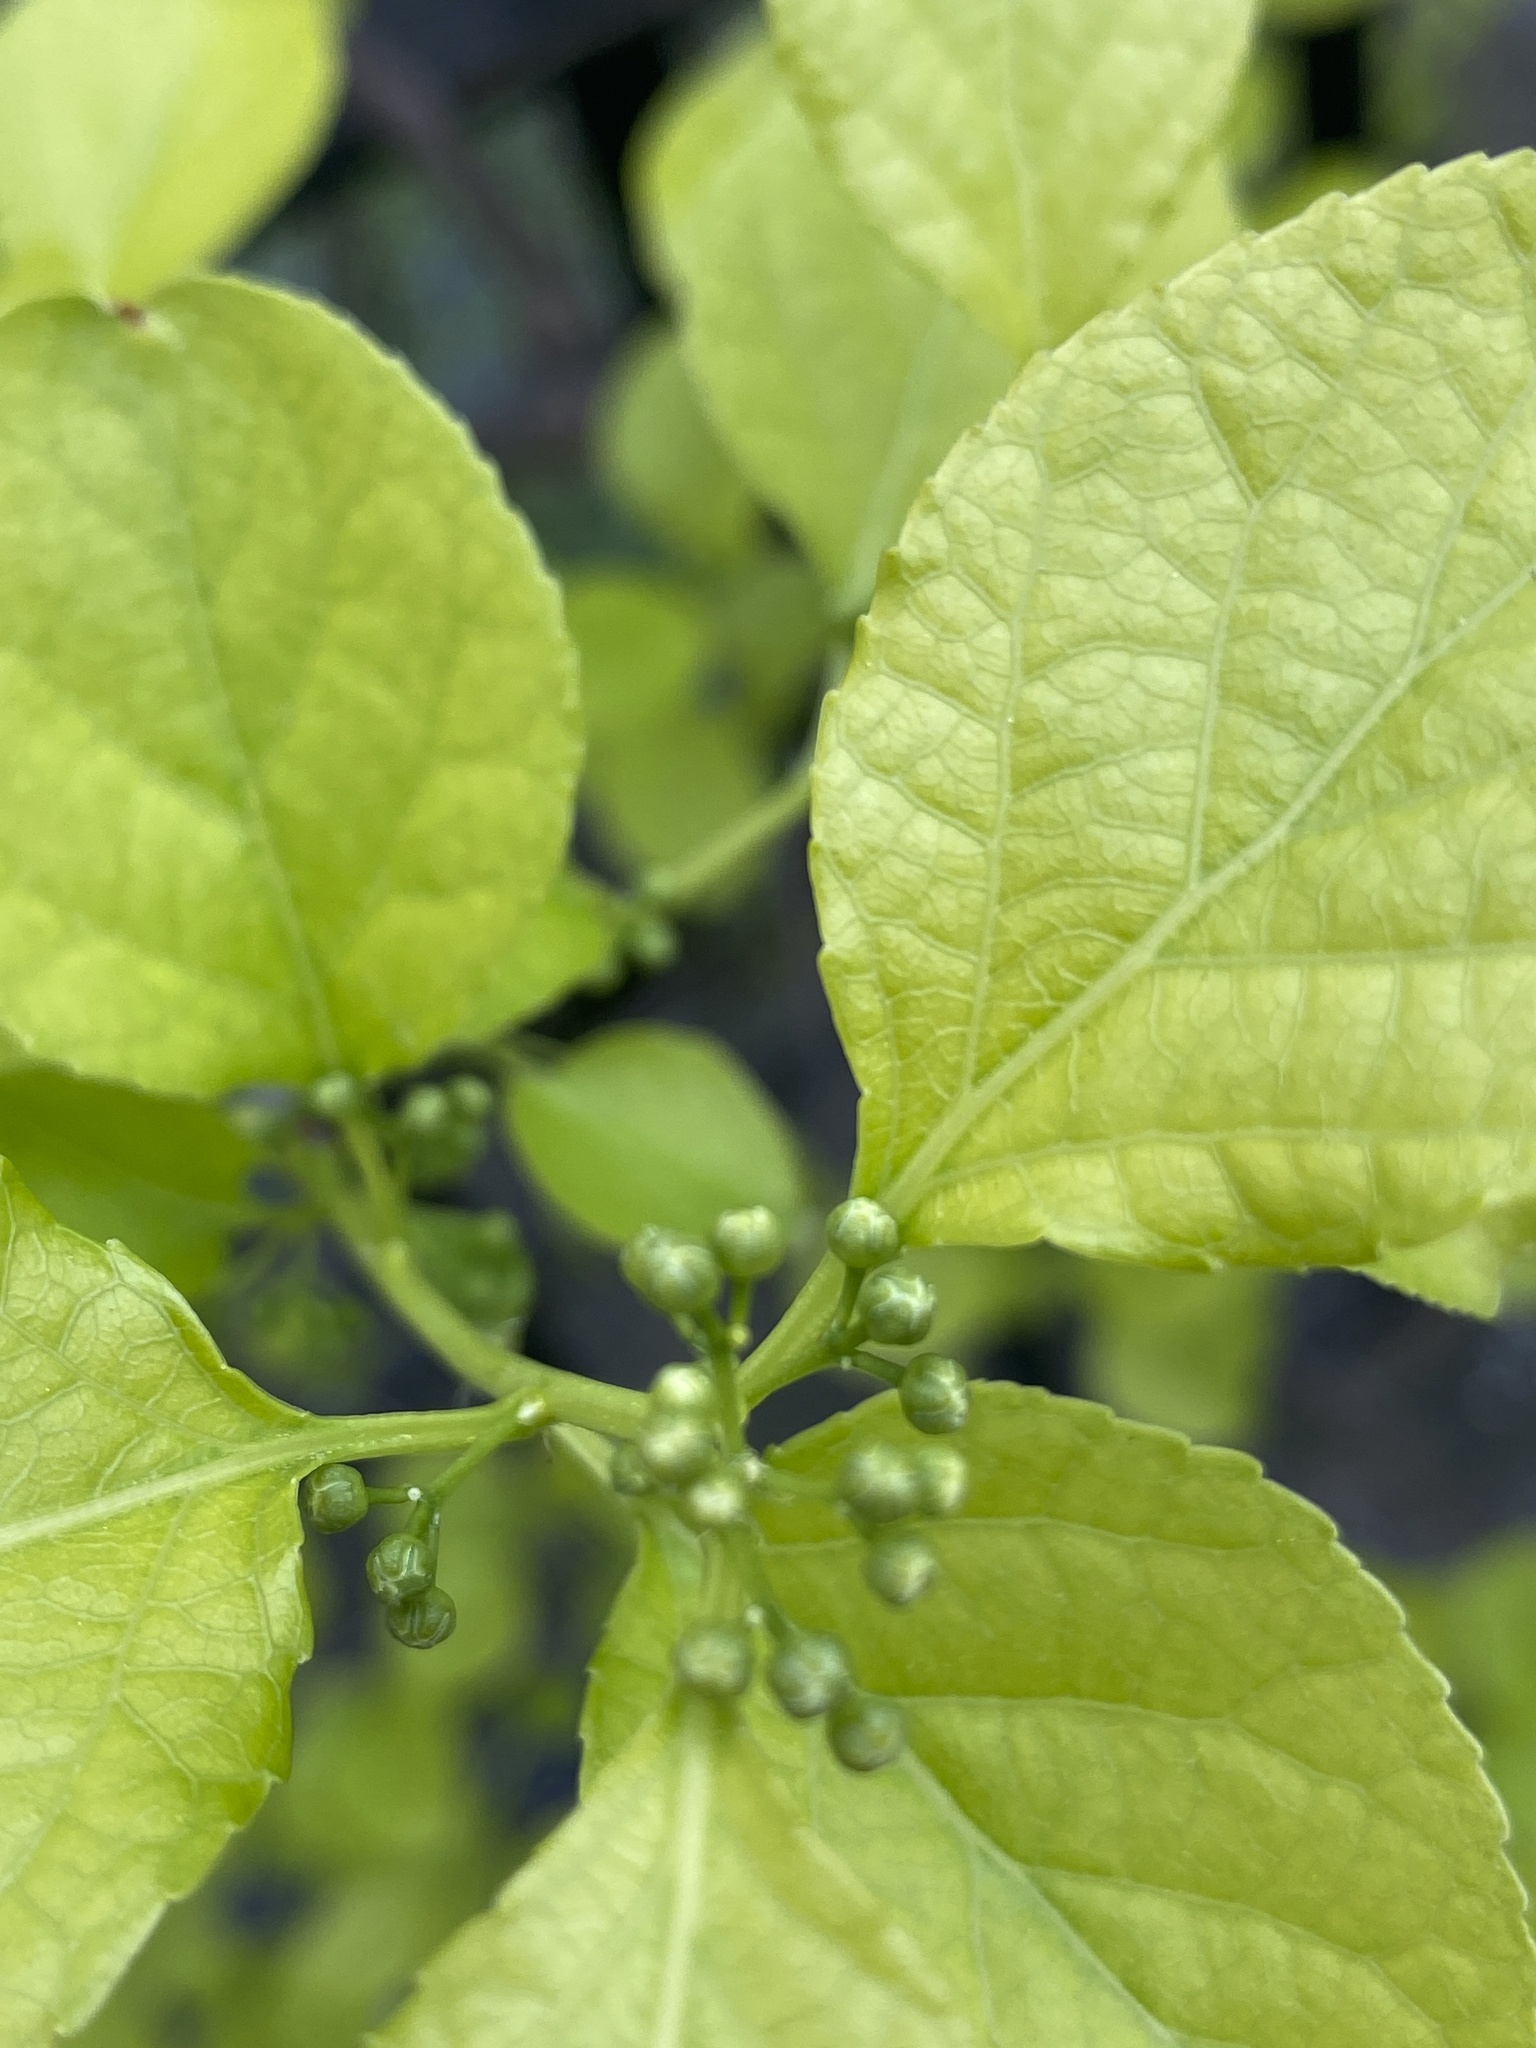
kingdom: Plantae
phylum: Tracheophyta
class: Magnoliopsida
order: Celastrales
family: Celastraceae
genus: Celastrus
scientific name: Celastrus orbiculatus
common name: Oriental bittersweet
